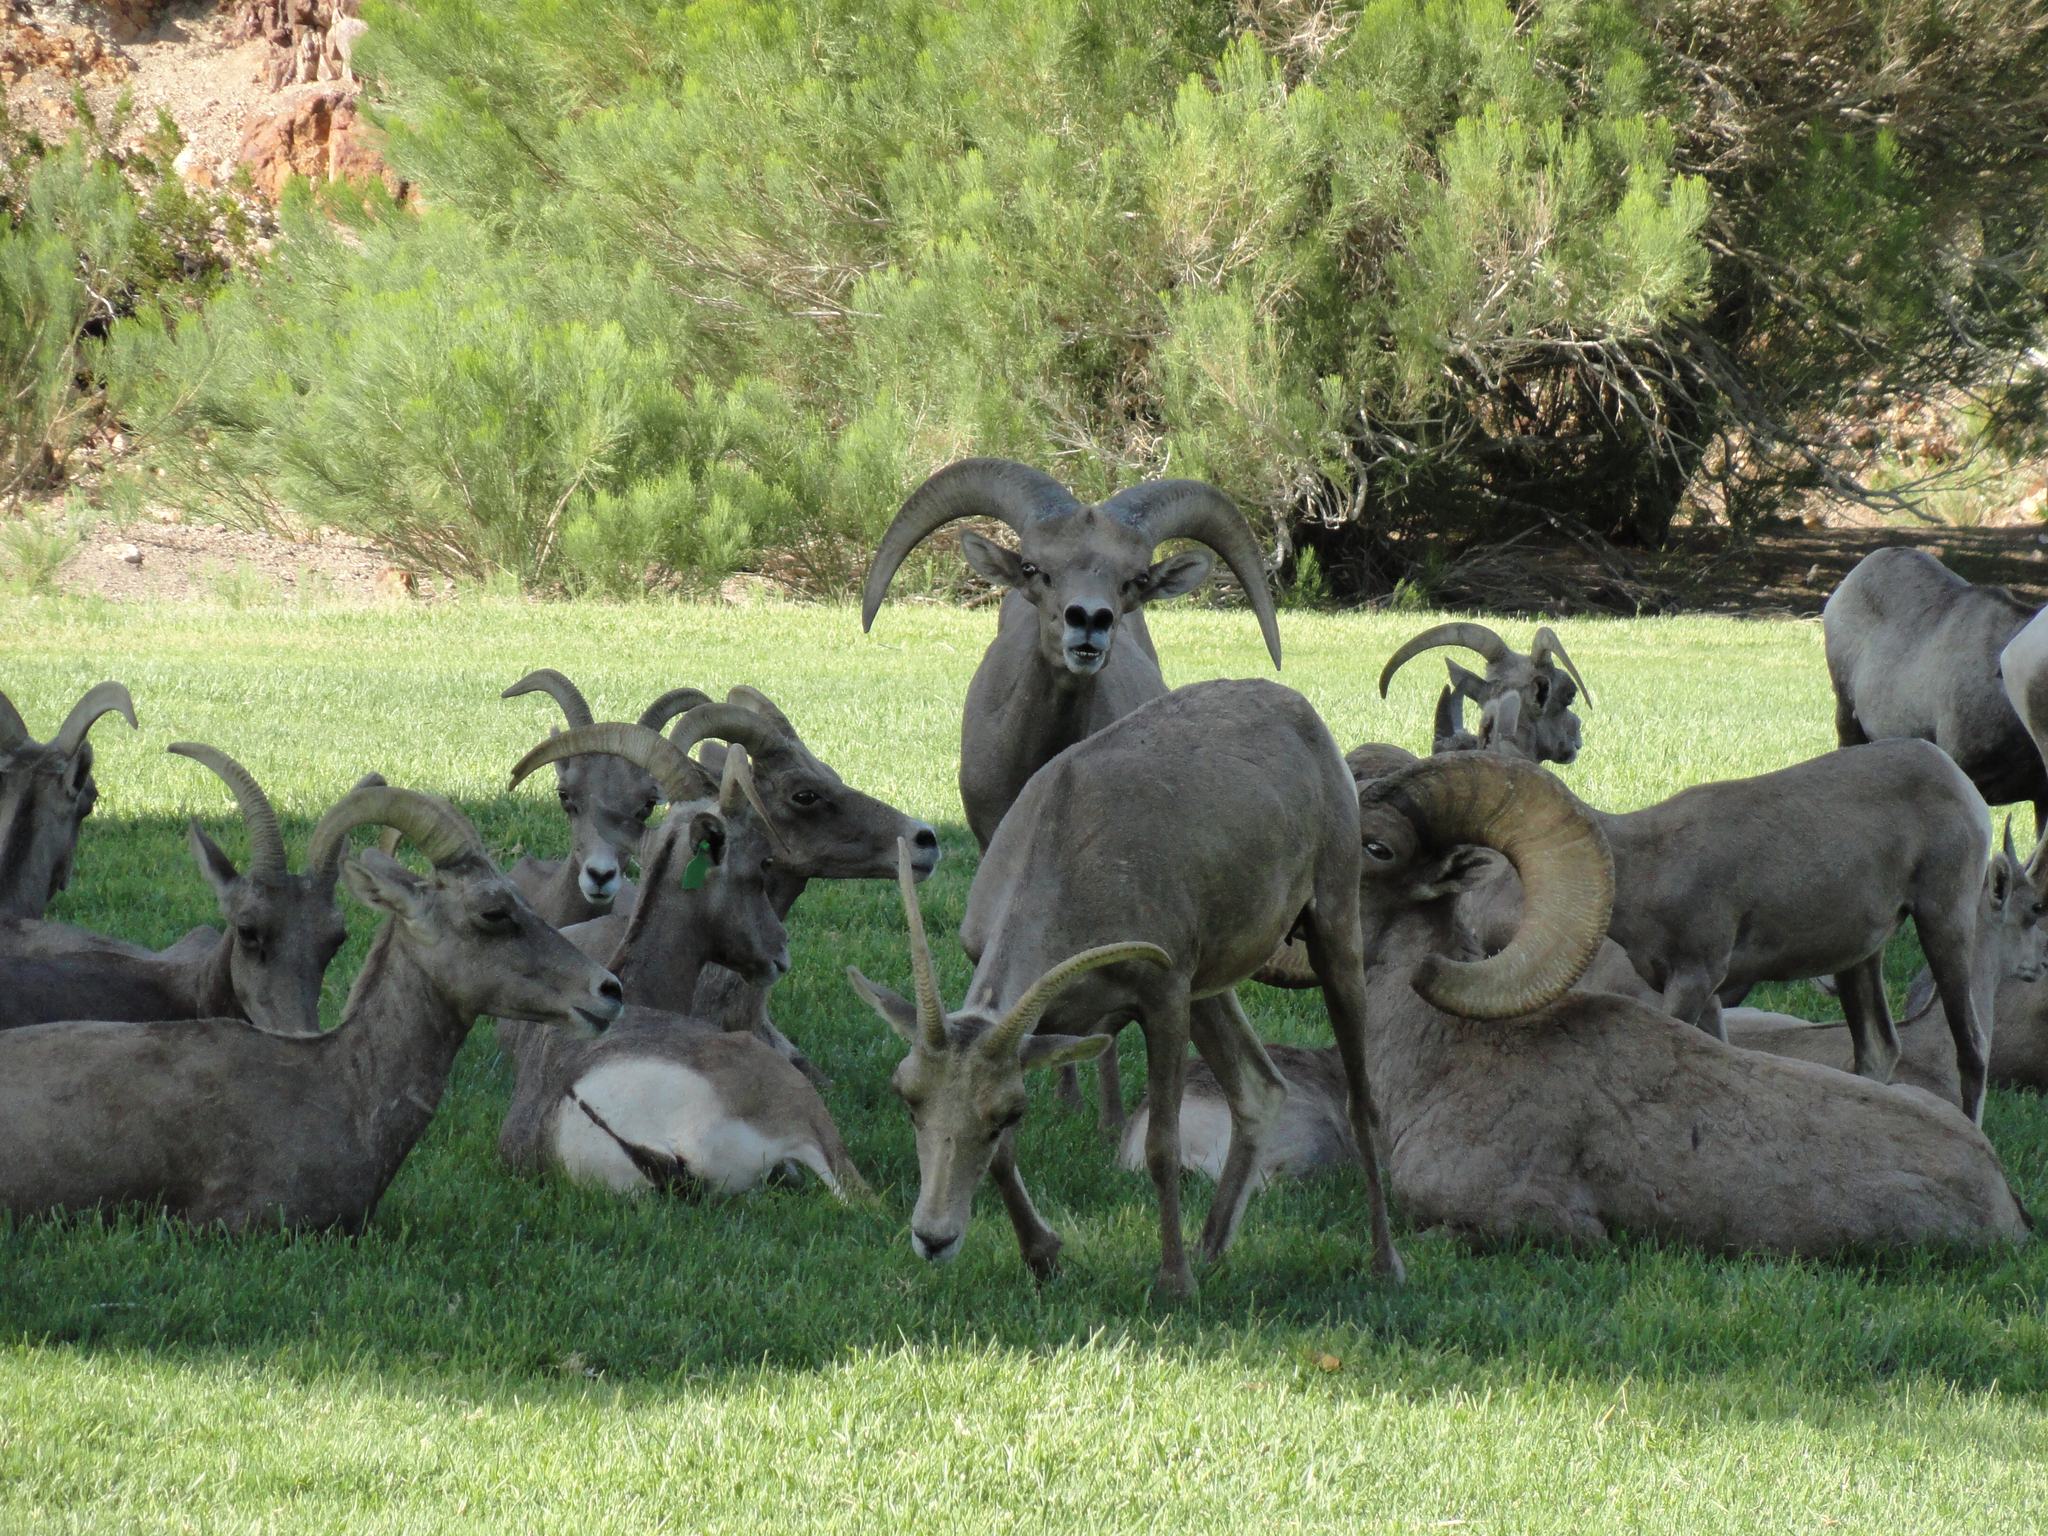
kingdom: Animalia
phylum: Chordata
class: Mammalia
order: Artiodactyla
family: Bovidae
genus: Ovis
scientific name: Ovis canadensis
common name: Bighorn sheep
